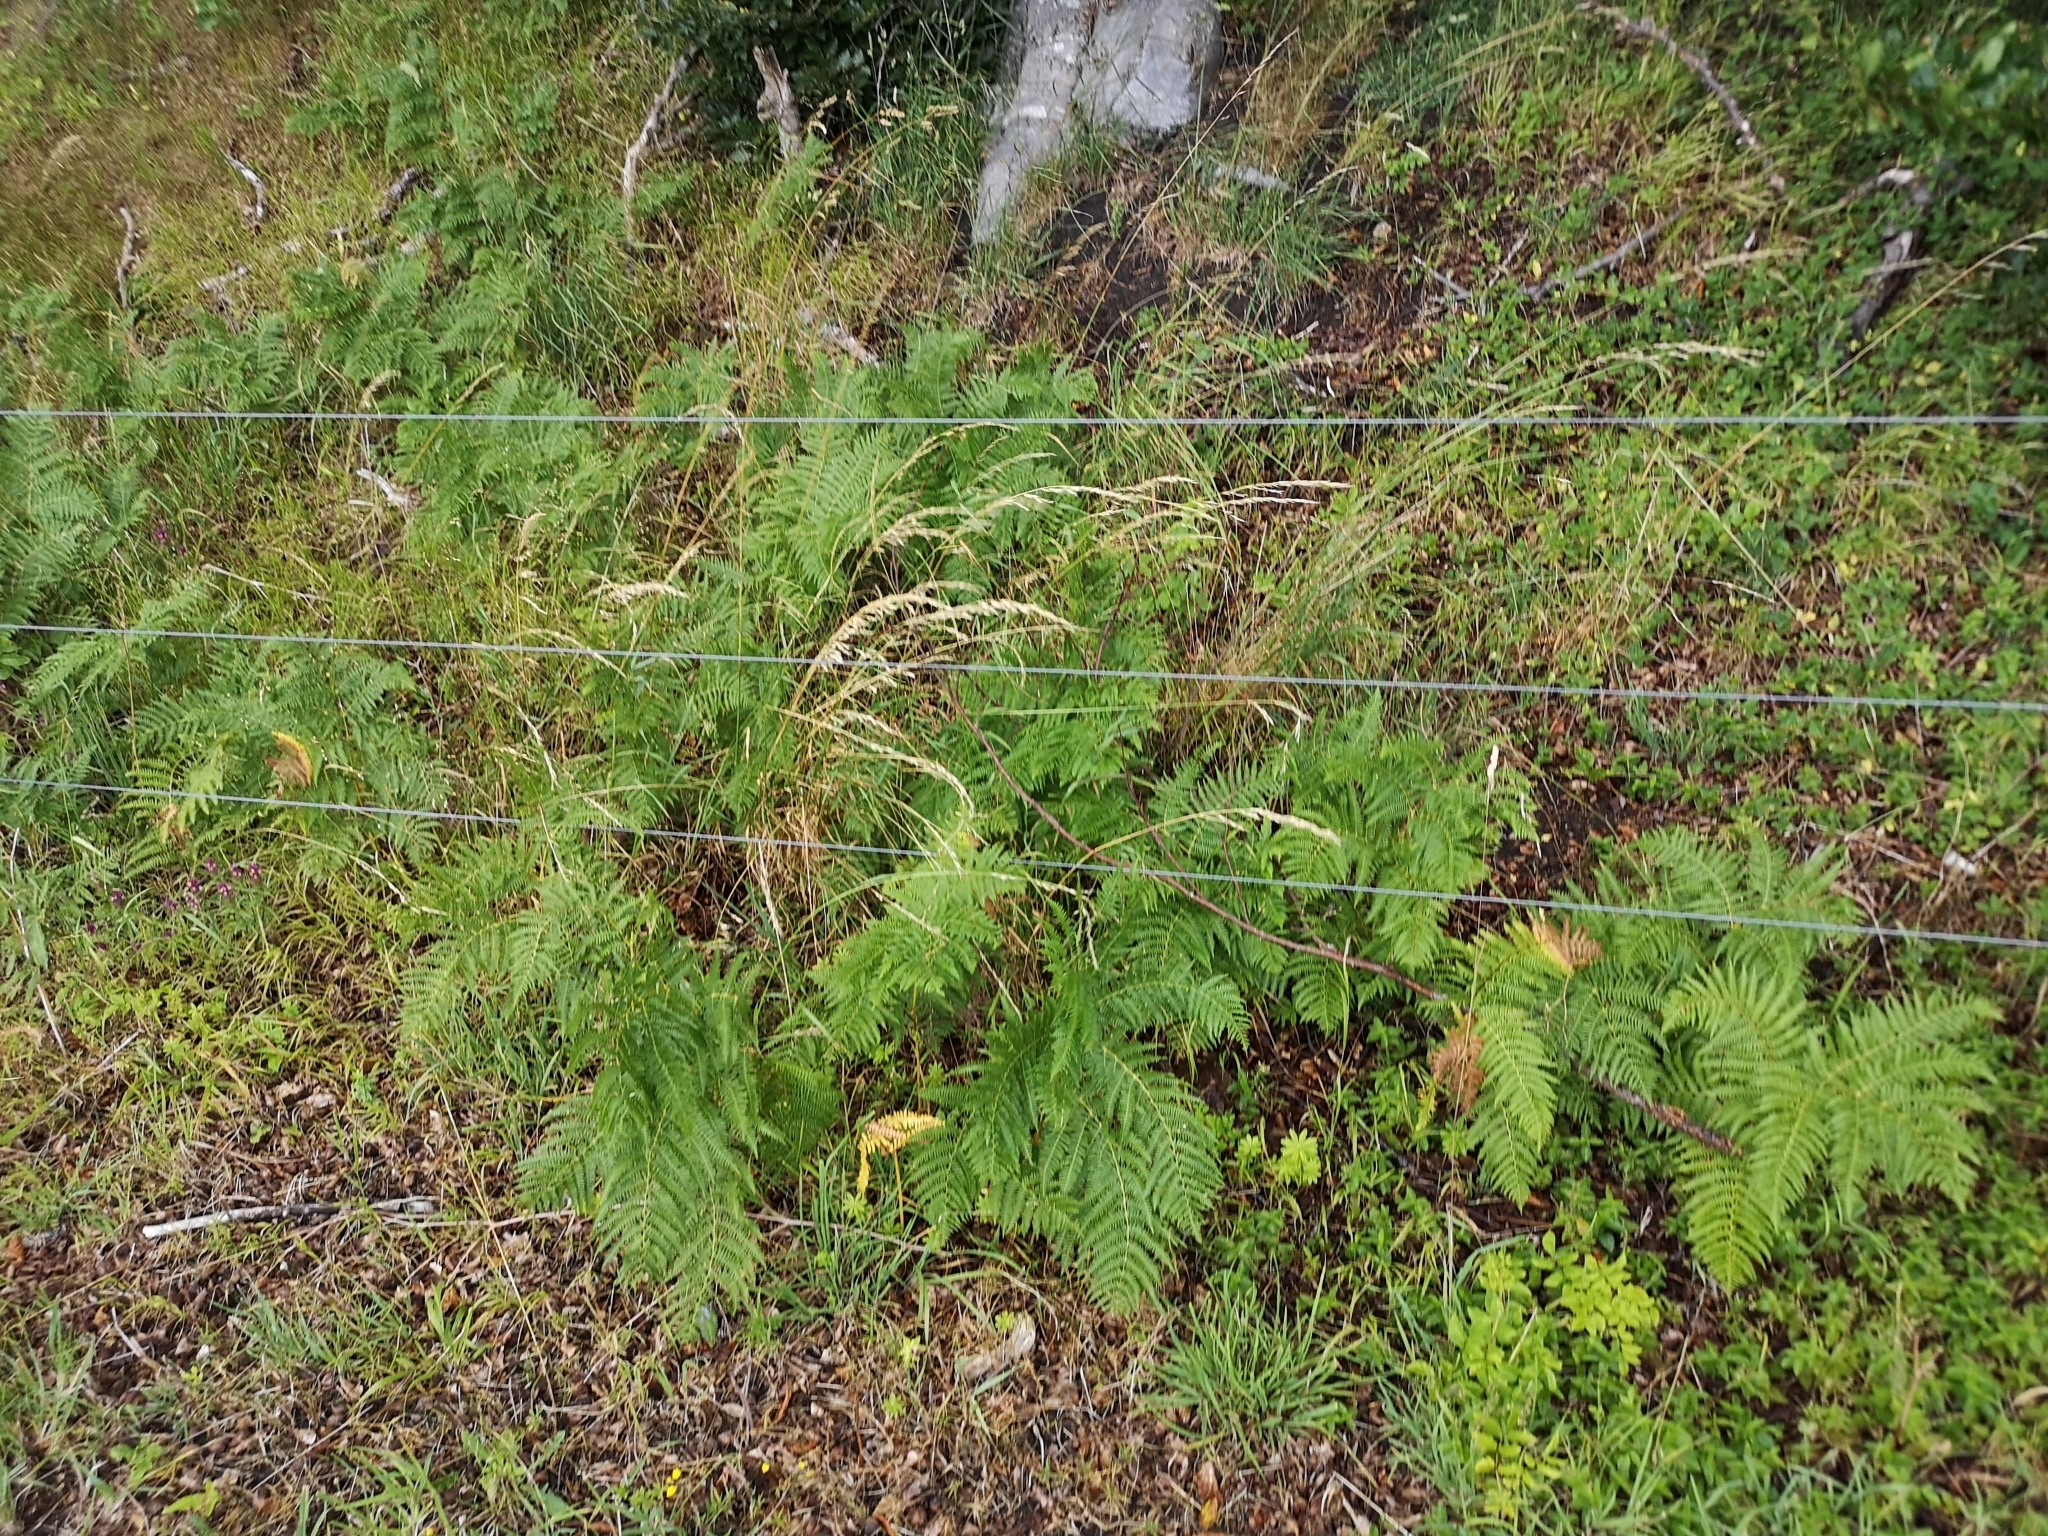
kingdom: Plantae
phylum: Tracheophyta
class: Polypodiopsida
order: Polypodiales
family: Dennstaedtiaceae
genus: Pteridium
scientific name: Pteridium aquilinum
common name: Bracken
